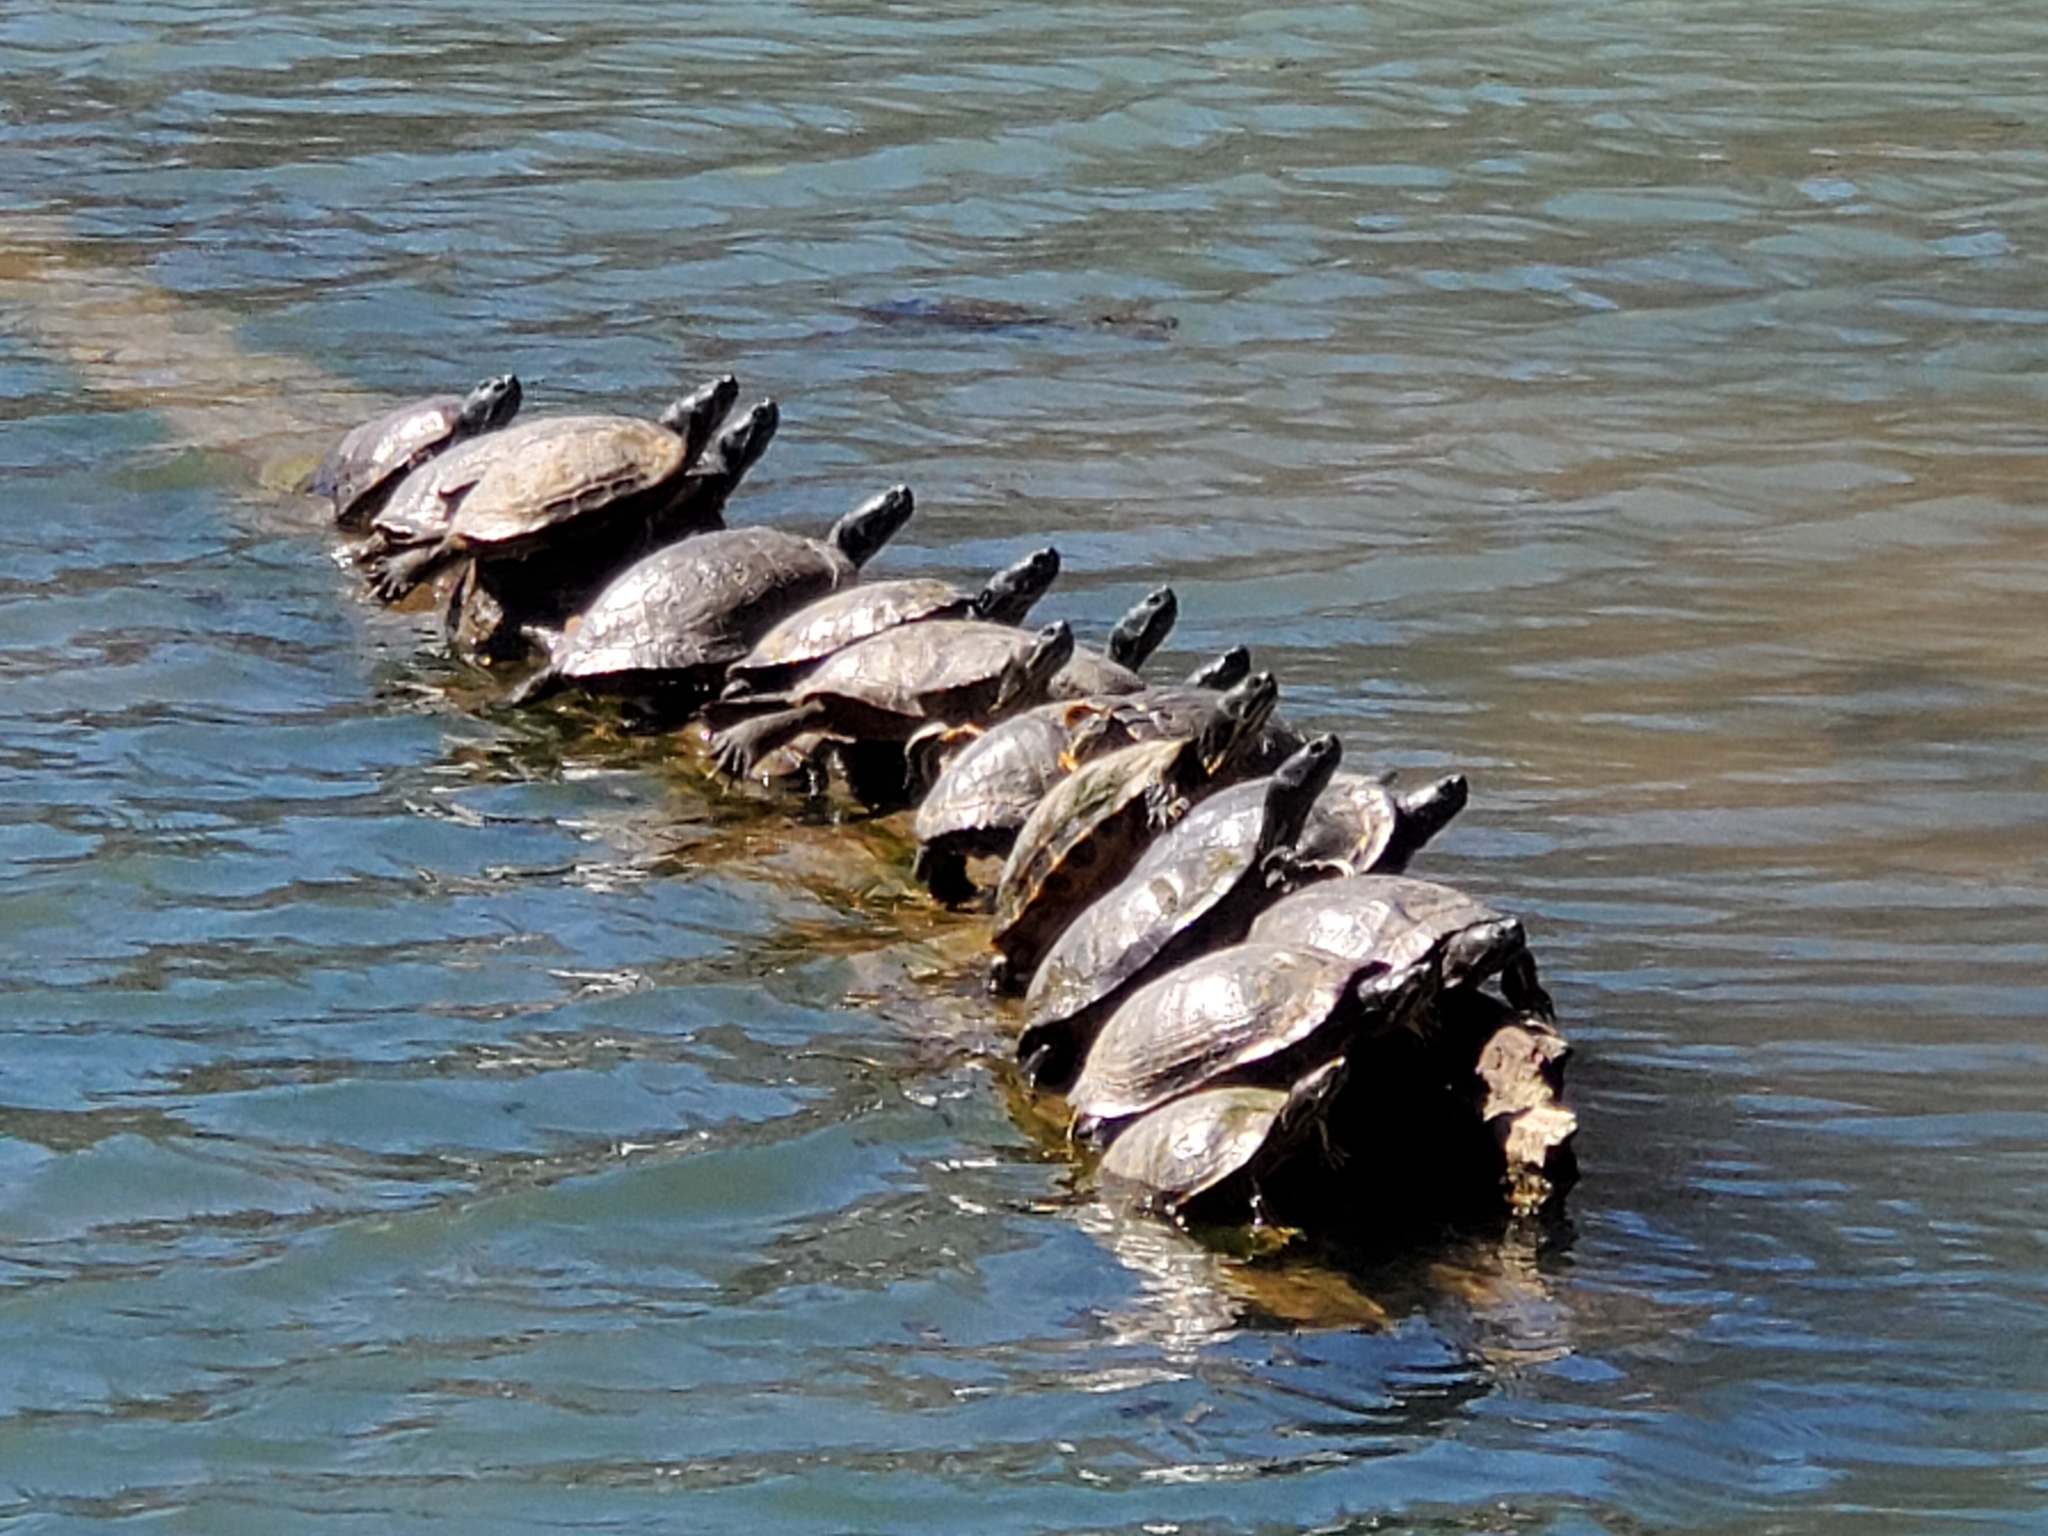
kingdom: Animalia
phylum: Chordata
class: Testudines
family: Emydidae
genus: Trachemys
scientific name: Trachemys scripta
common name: Slider
